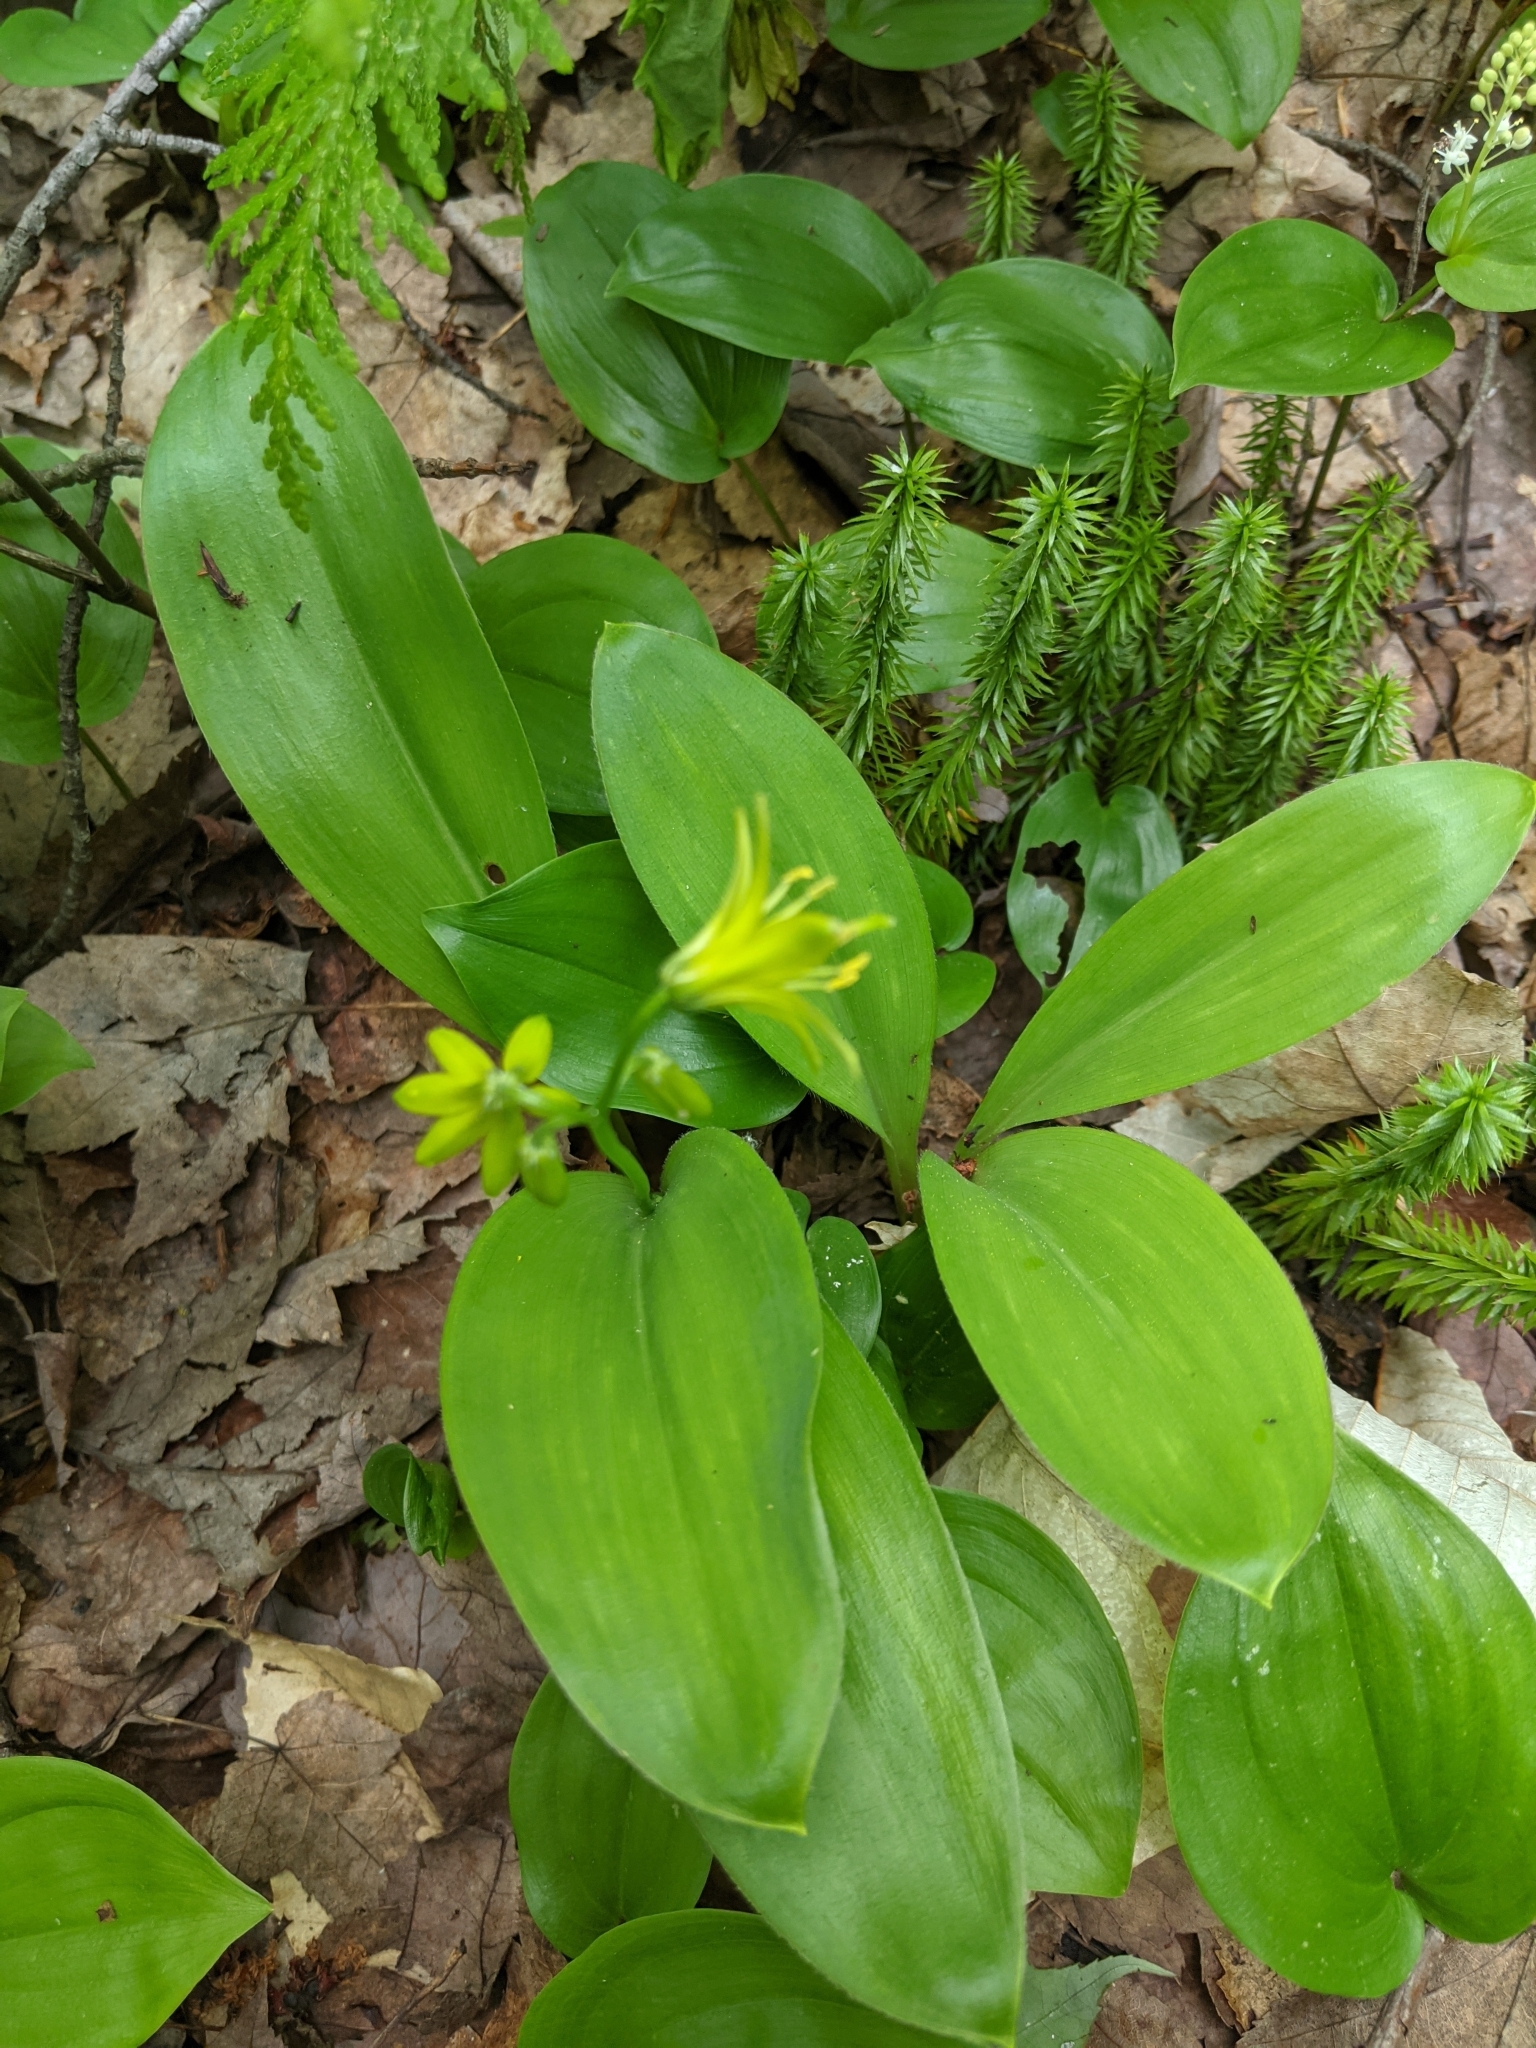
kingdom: Plantae
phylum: Tracheophyta
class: Liliopsida
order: Liliales
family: Liliaceae
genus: Clintonia
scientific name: Clintonia borealis
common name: Yellow clintonia
